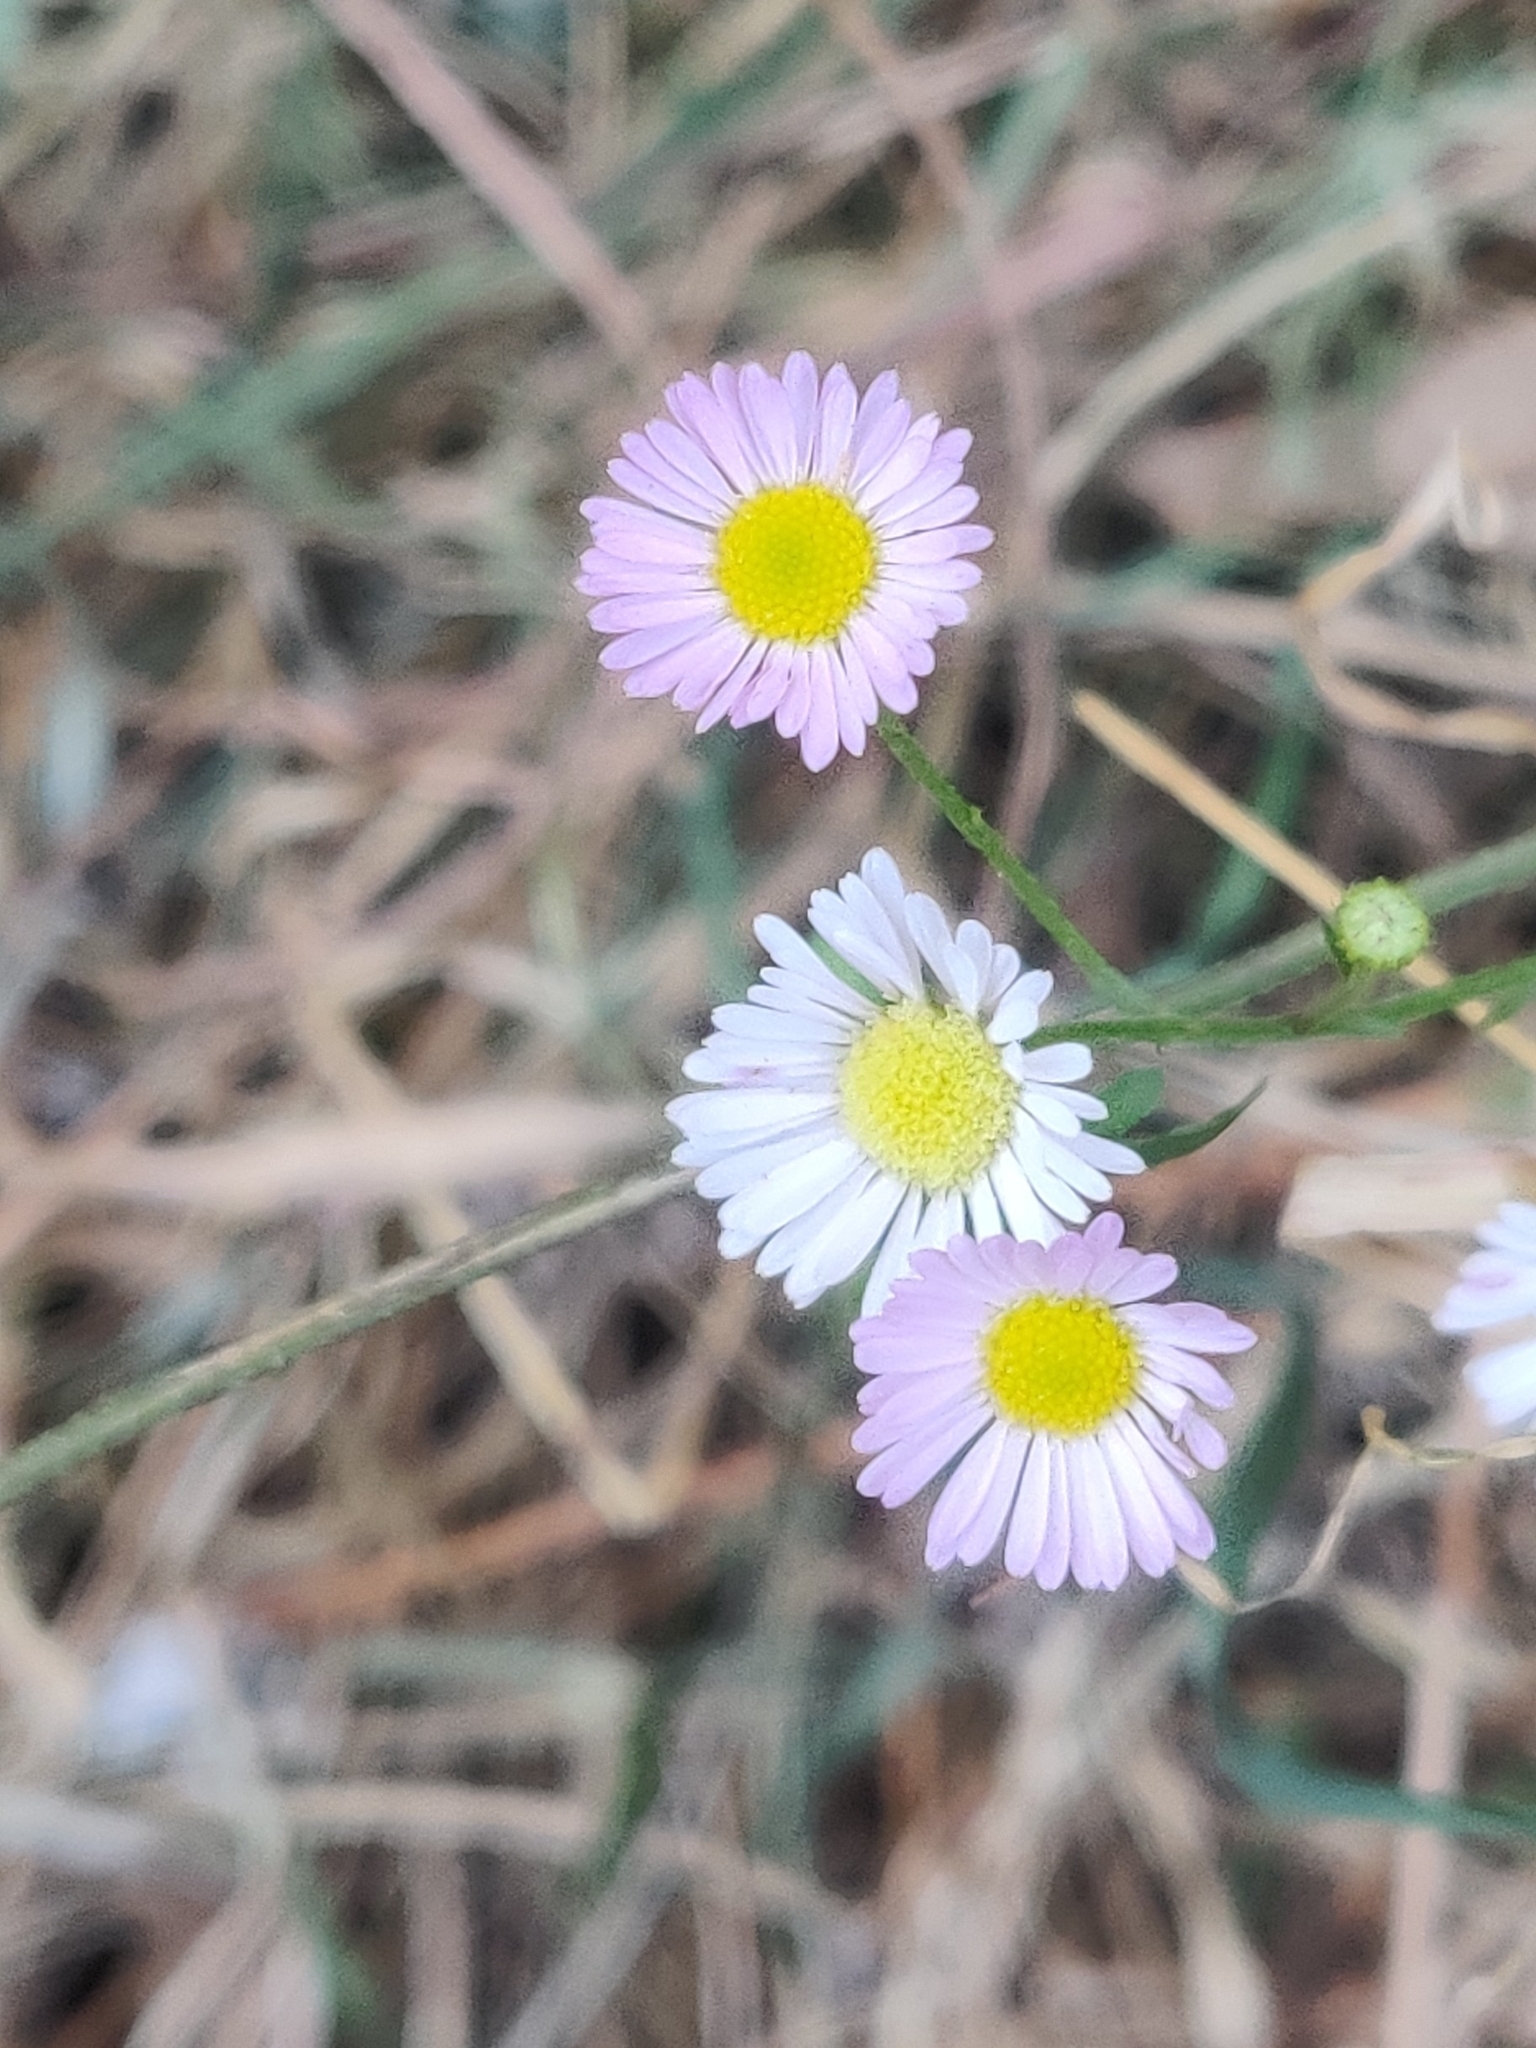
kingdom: Plantae
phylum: Tracheophyta
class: Magnoliopsida
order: Asterales
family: Asteraceae
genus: Erigeron
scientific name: Erigeron karvinskianus
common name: Mexican fleabane
